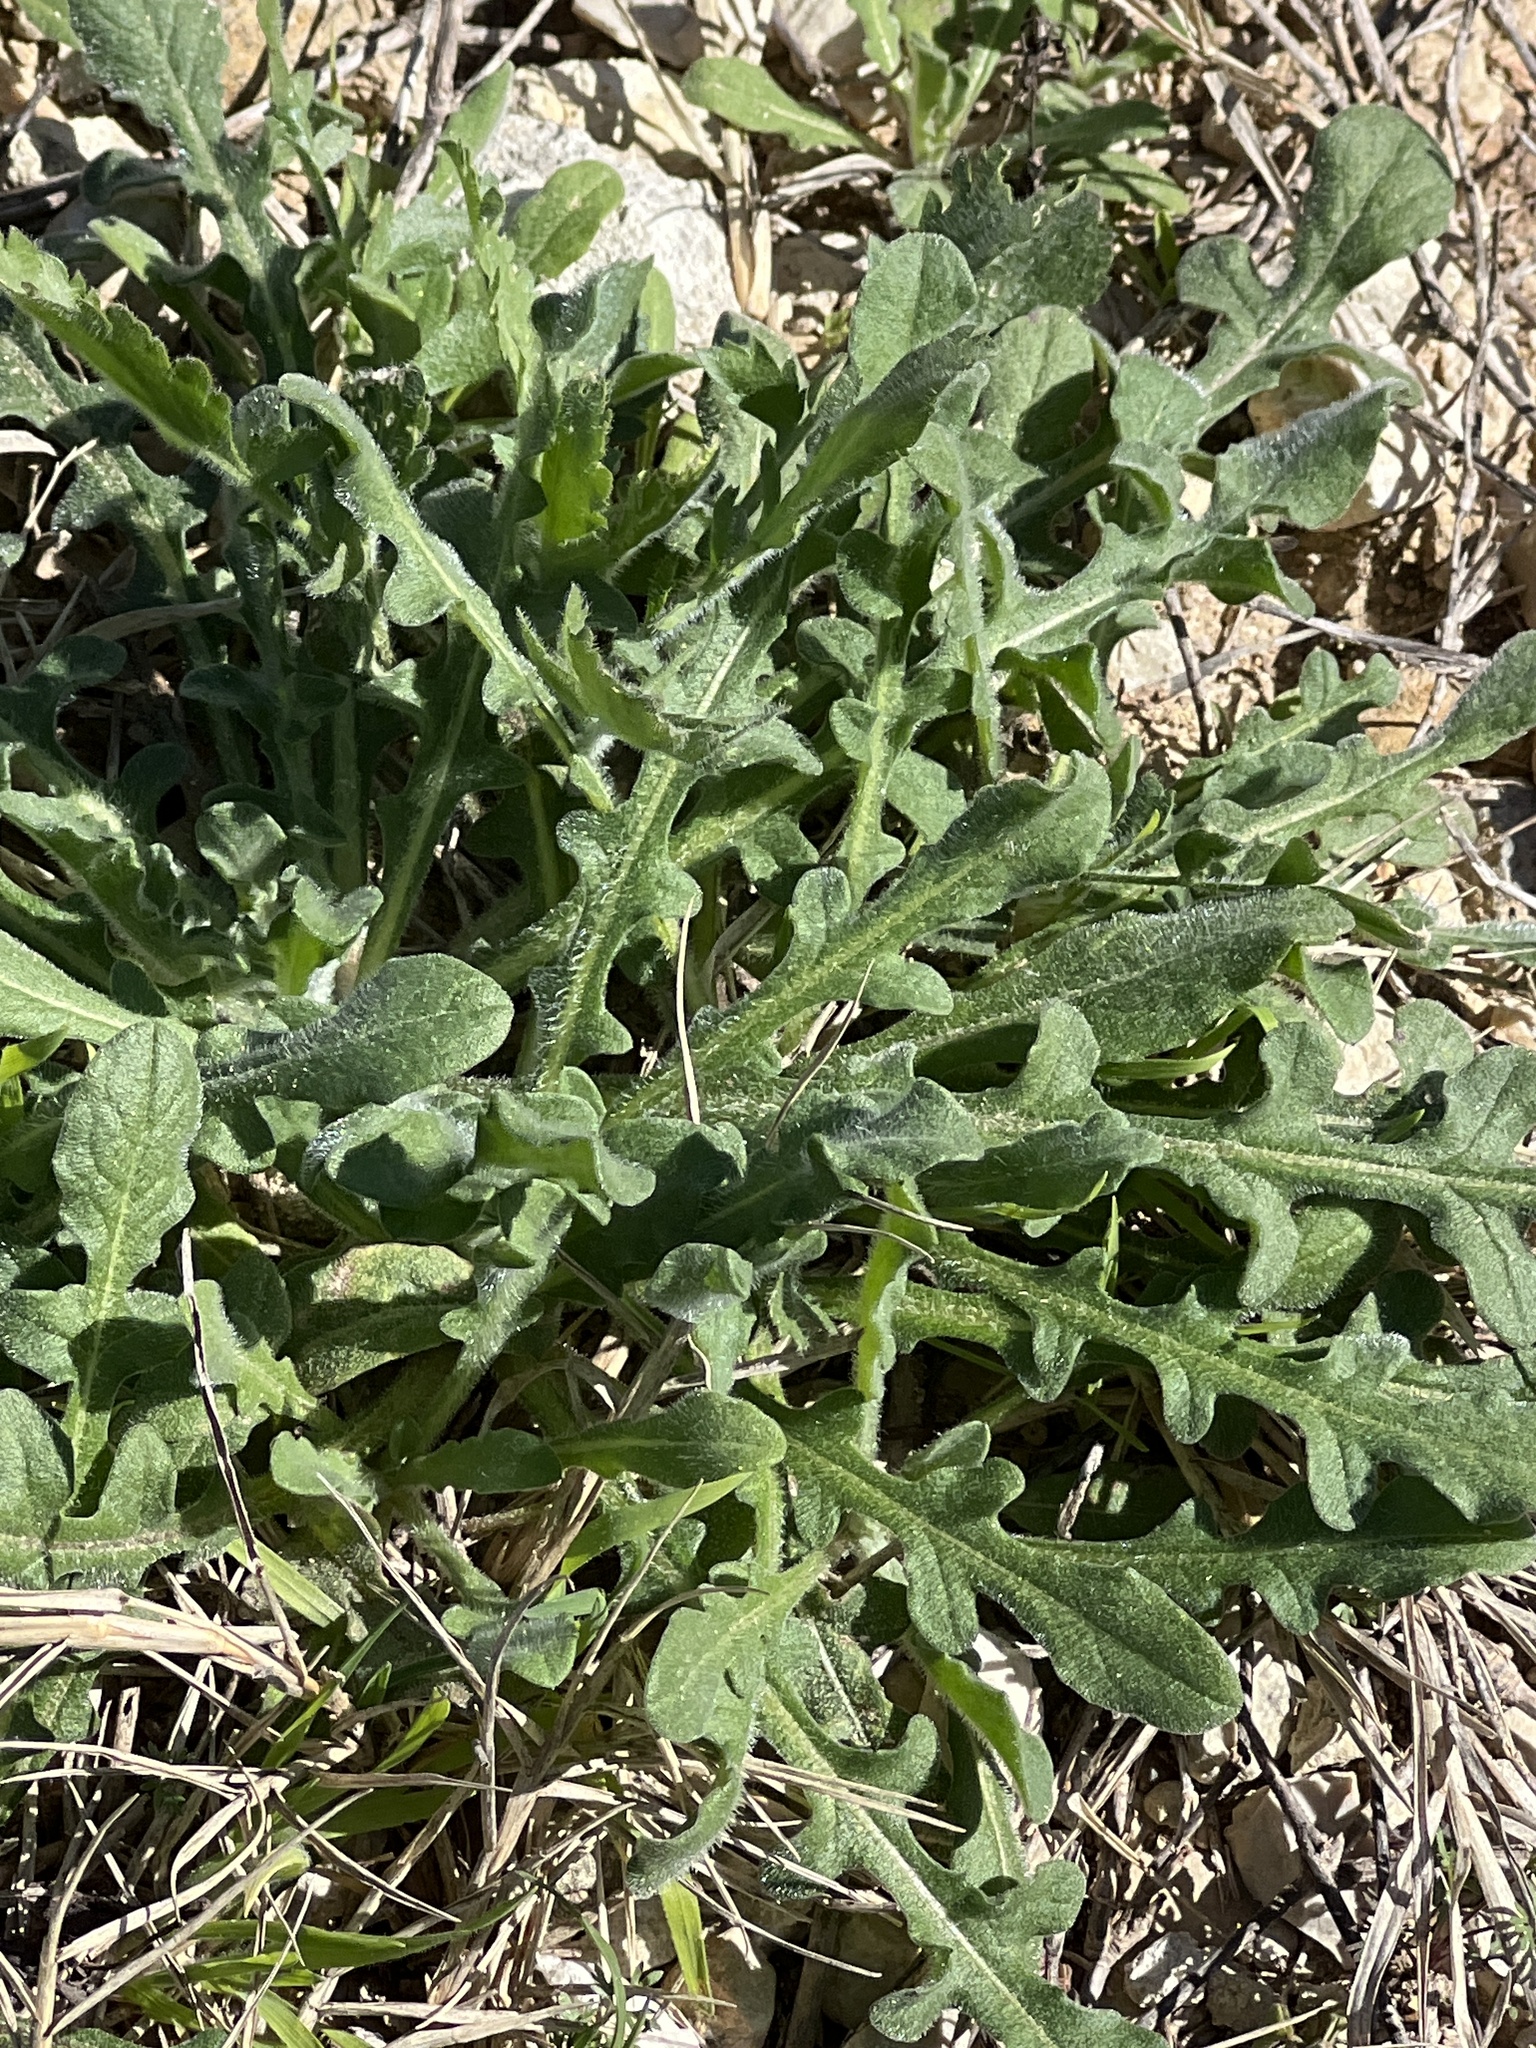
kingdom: Plantae
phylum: Tracheophyta
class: Magnoliopsida
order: Asterales
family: Asteraceae
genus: Centaurea
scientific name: Centaurea melitensis
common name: Maltese star-thistle
